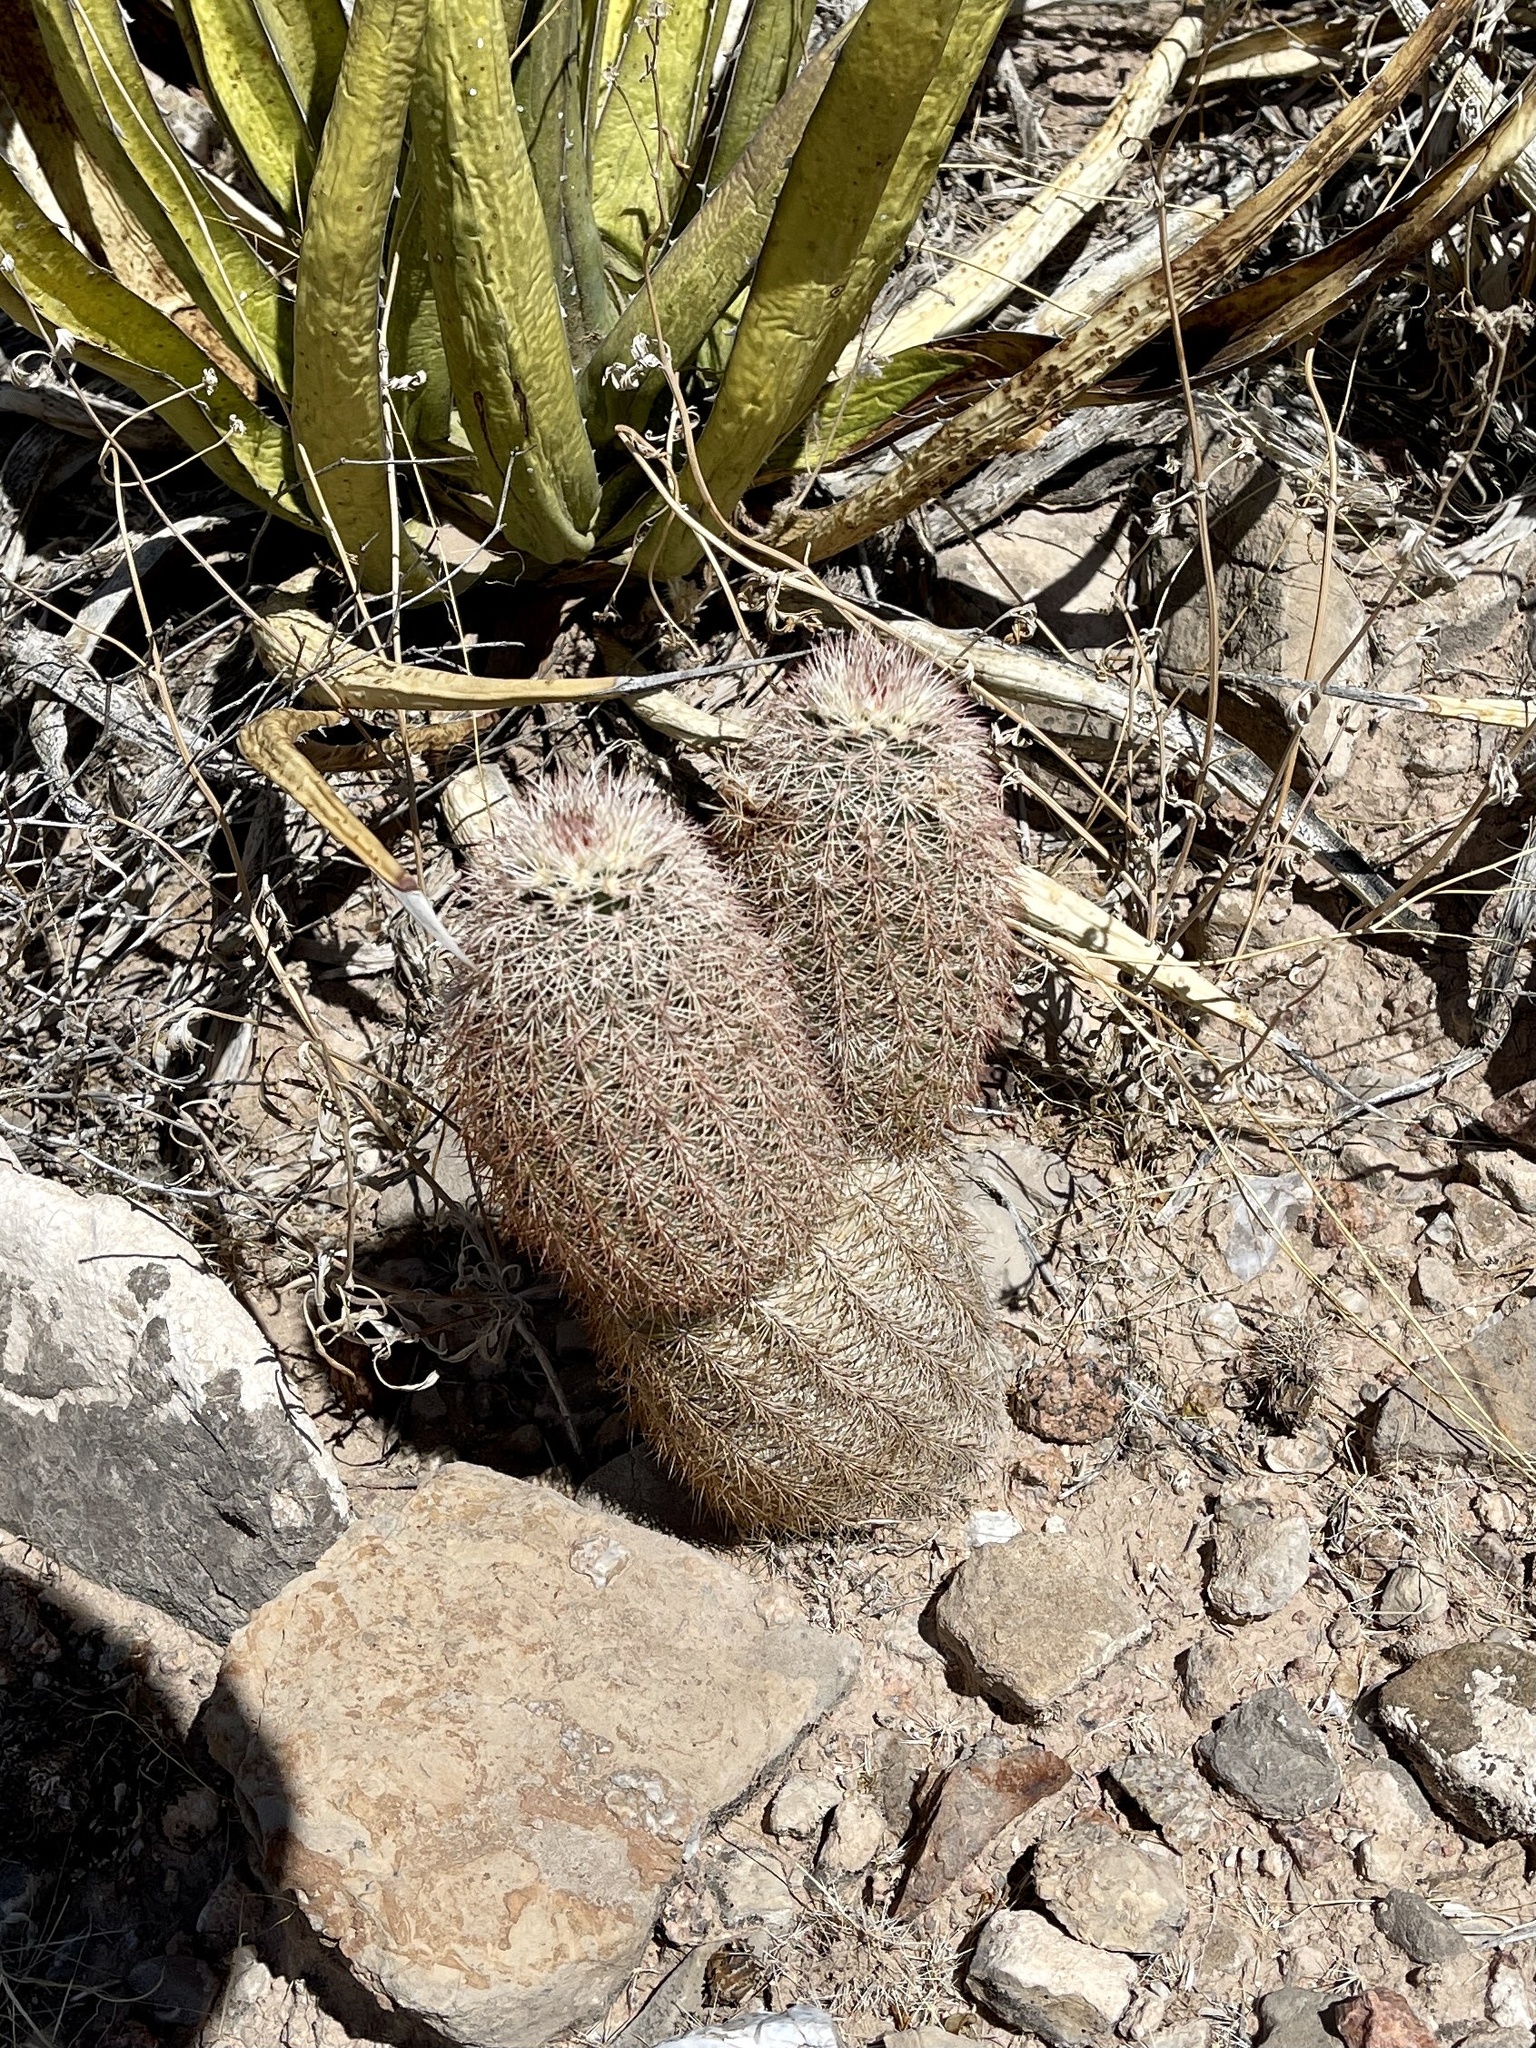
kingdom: Plantae
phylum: Tracheophyta
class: Magnoliopsida
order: Caryophyllales
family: Cactaceae
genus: Echinocereus
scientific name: Echinocereus dasyacanthus
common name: Spiny hedgehog cactus
